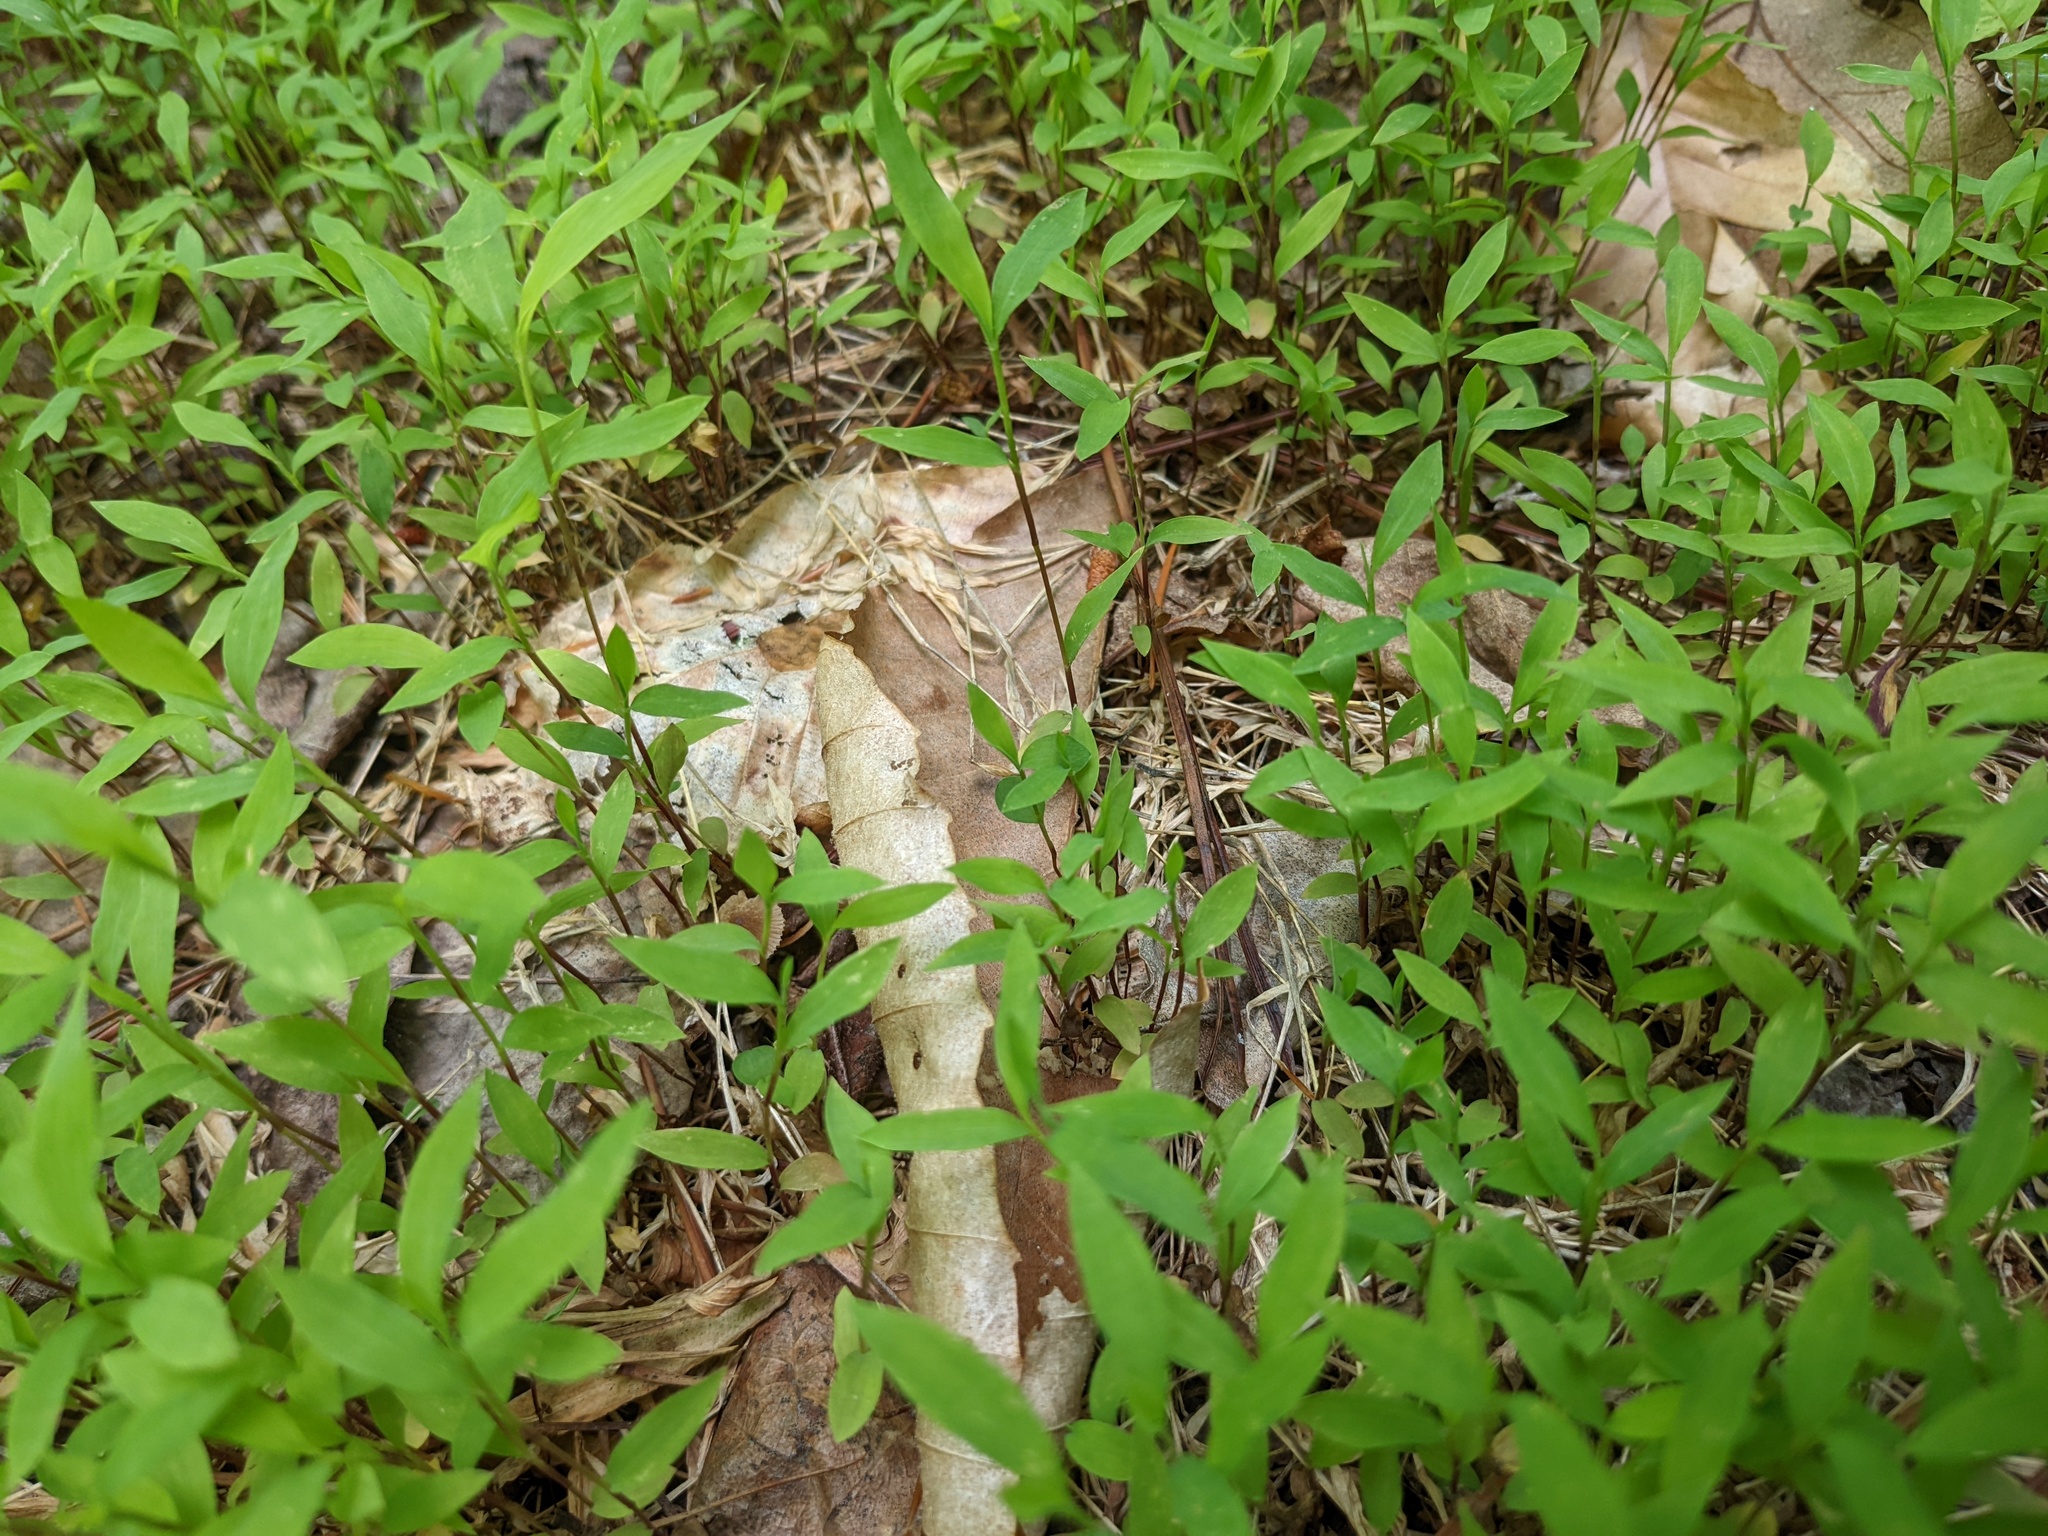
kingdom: Plantae
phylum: Tracheophyta
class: Liliopsida
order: Poales
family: Poaceae
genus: Microstegium
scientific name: Microstegium vimineum
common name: Japanese stiltgrass
